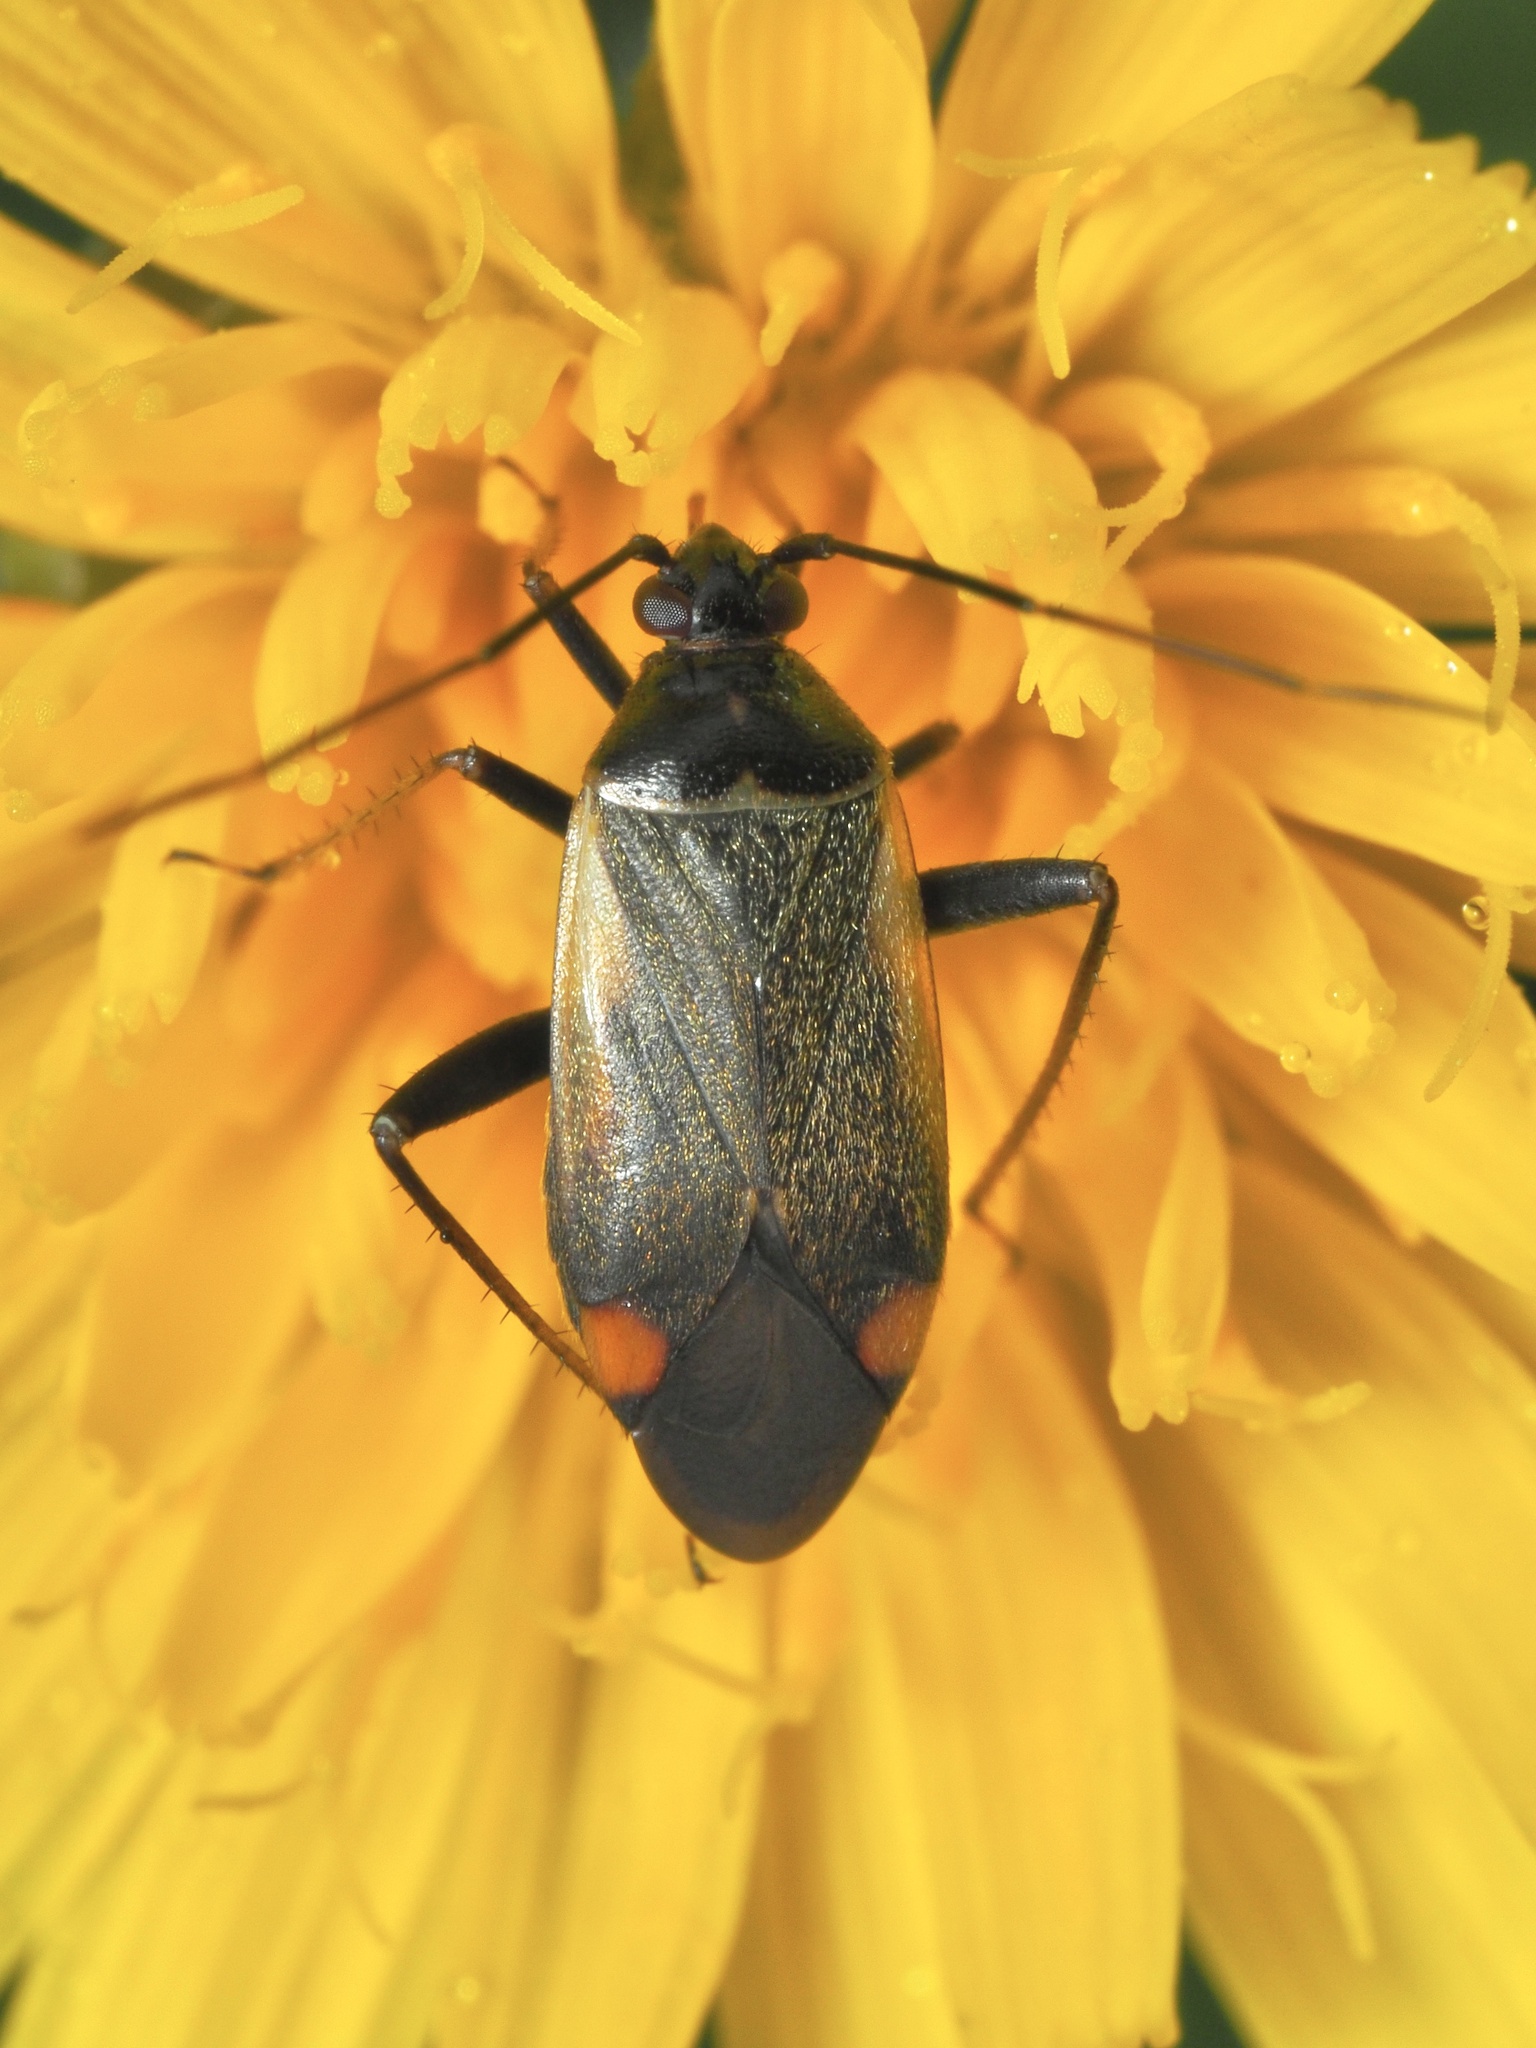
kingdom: Animalia
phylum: Arthropoda
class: Insecta
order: Hemiptera
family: Miridae
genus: Adelphocoris
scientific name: Adelphocoris seticornis
